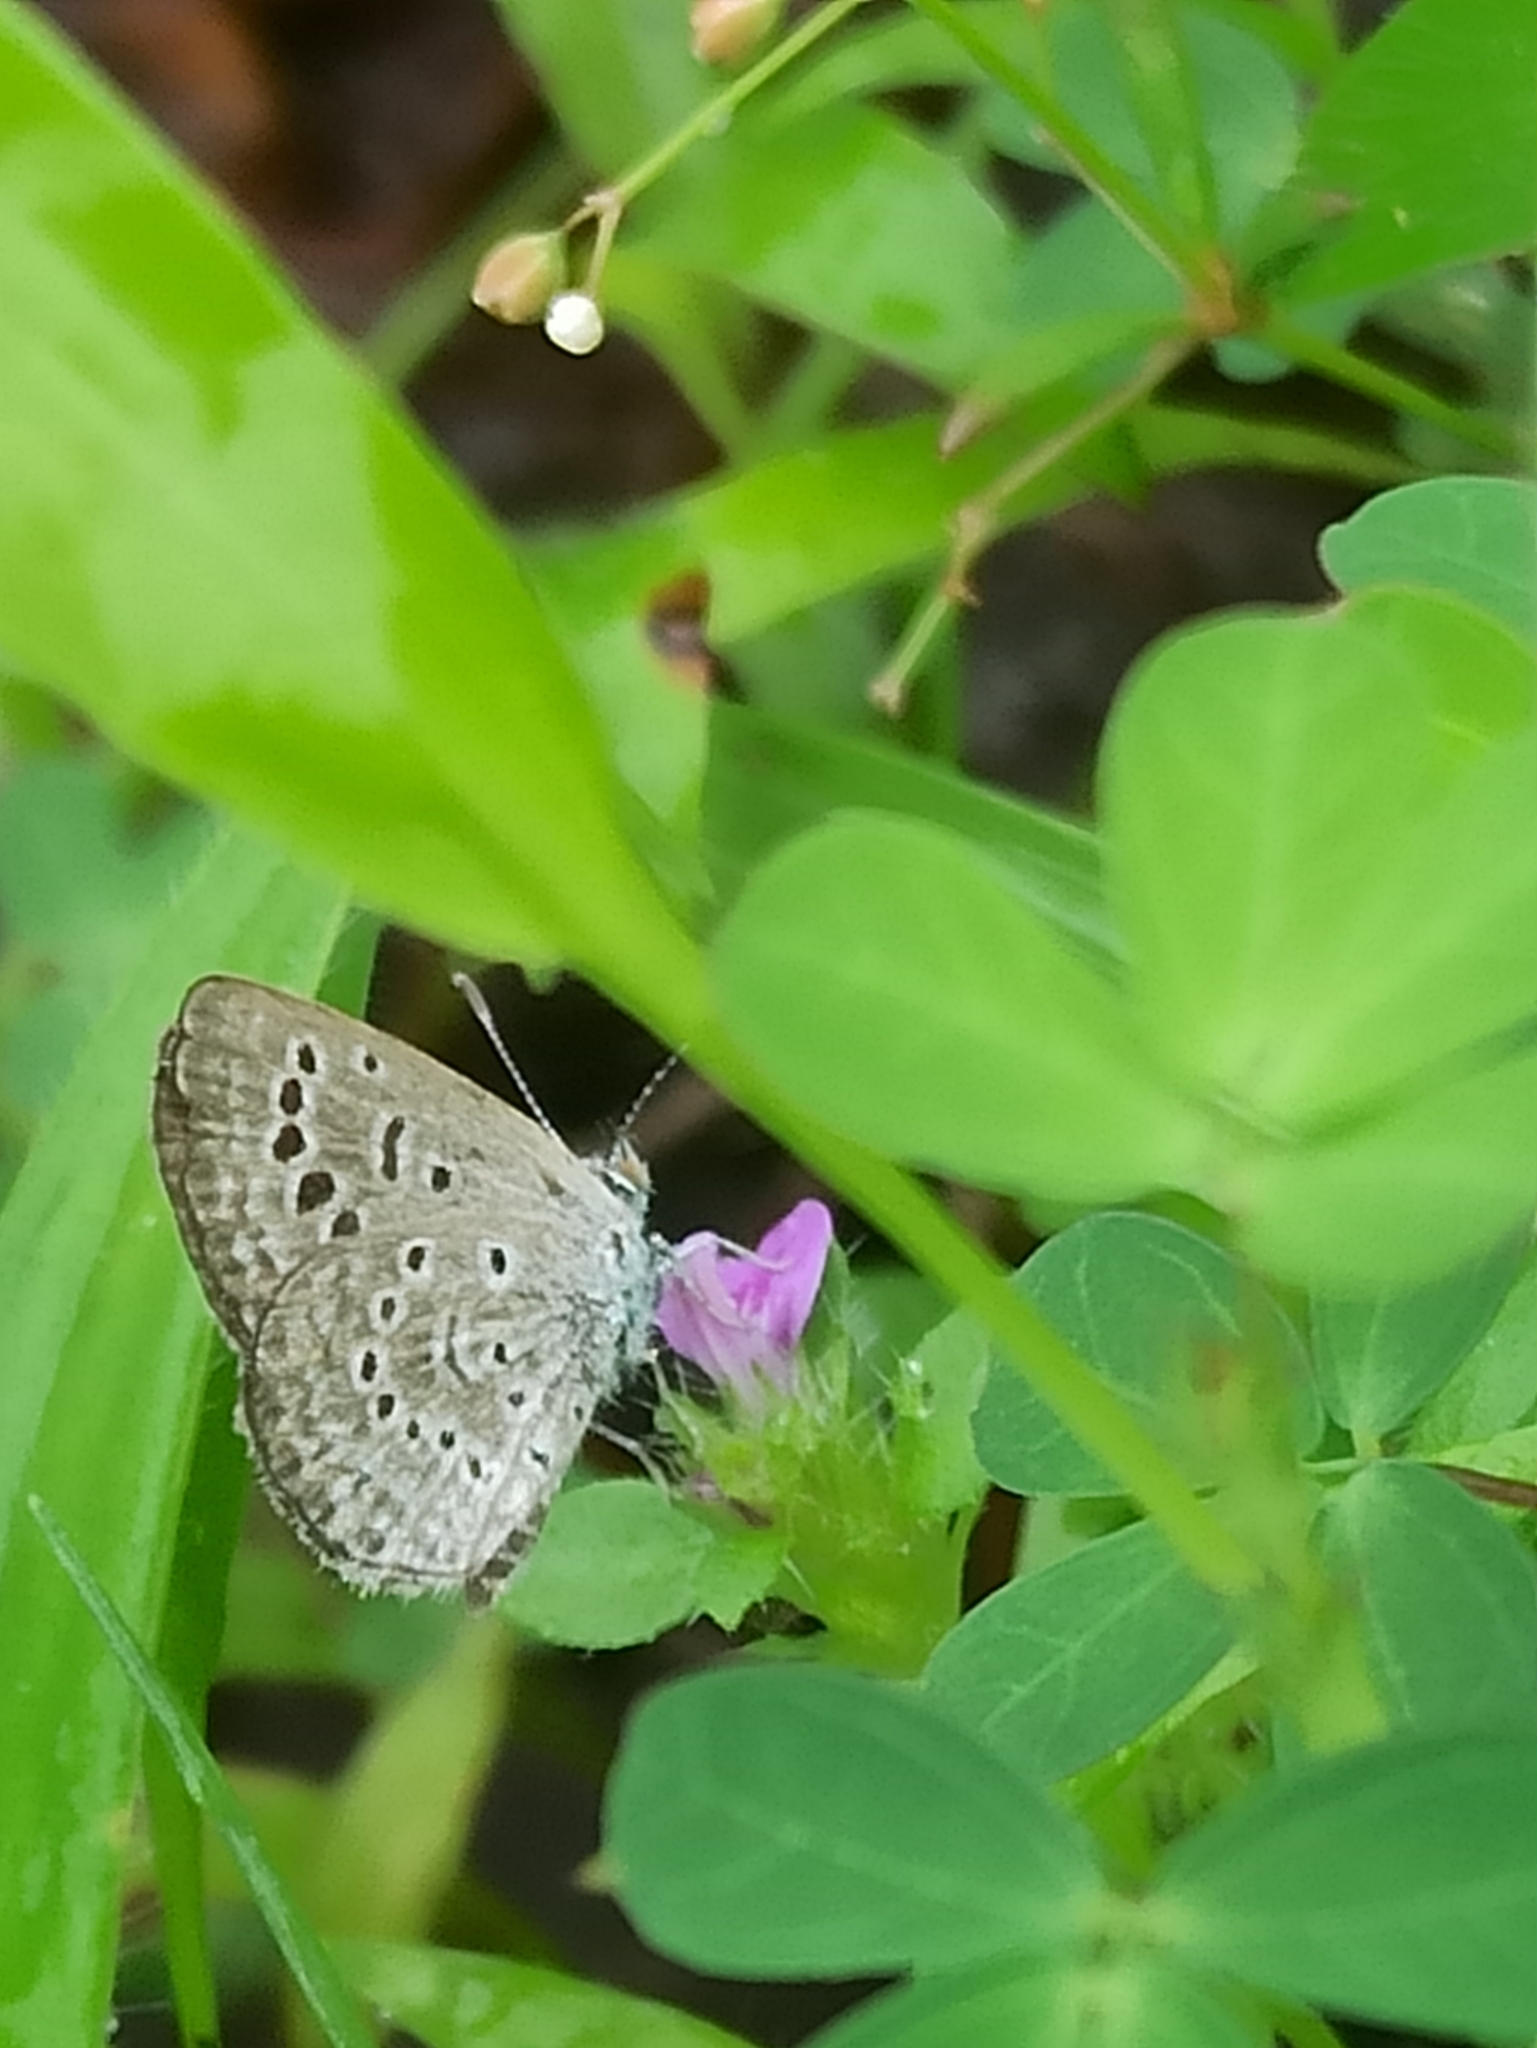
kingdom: Animalia
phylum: Arthropoda
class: Insecta
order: Lepidoptera
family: Lycaenidae
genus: Zizeeria
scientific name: Zizeeria karsandra
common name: Dark grass blue
